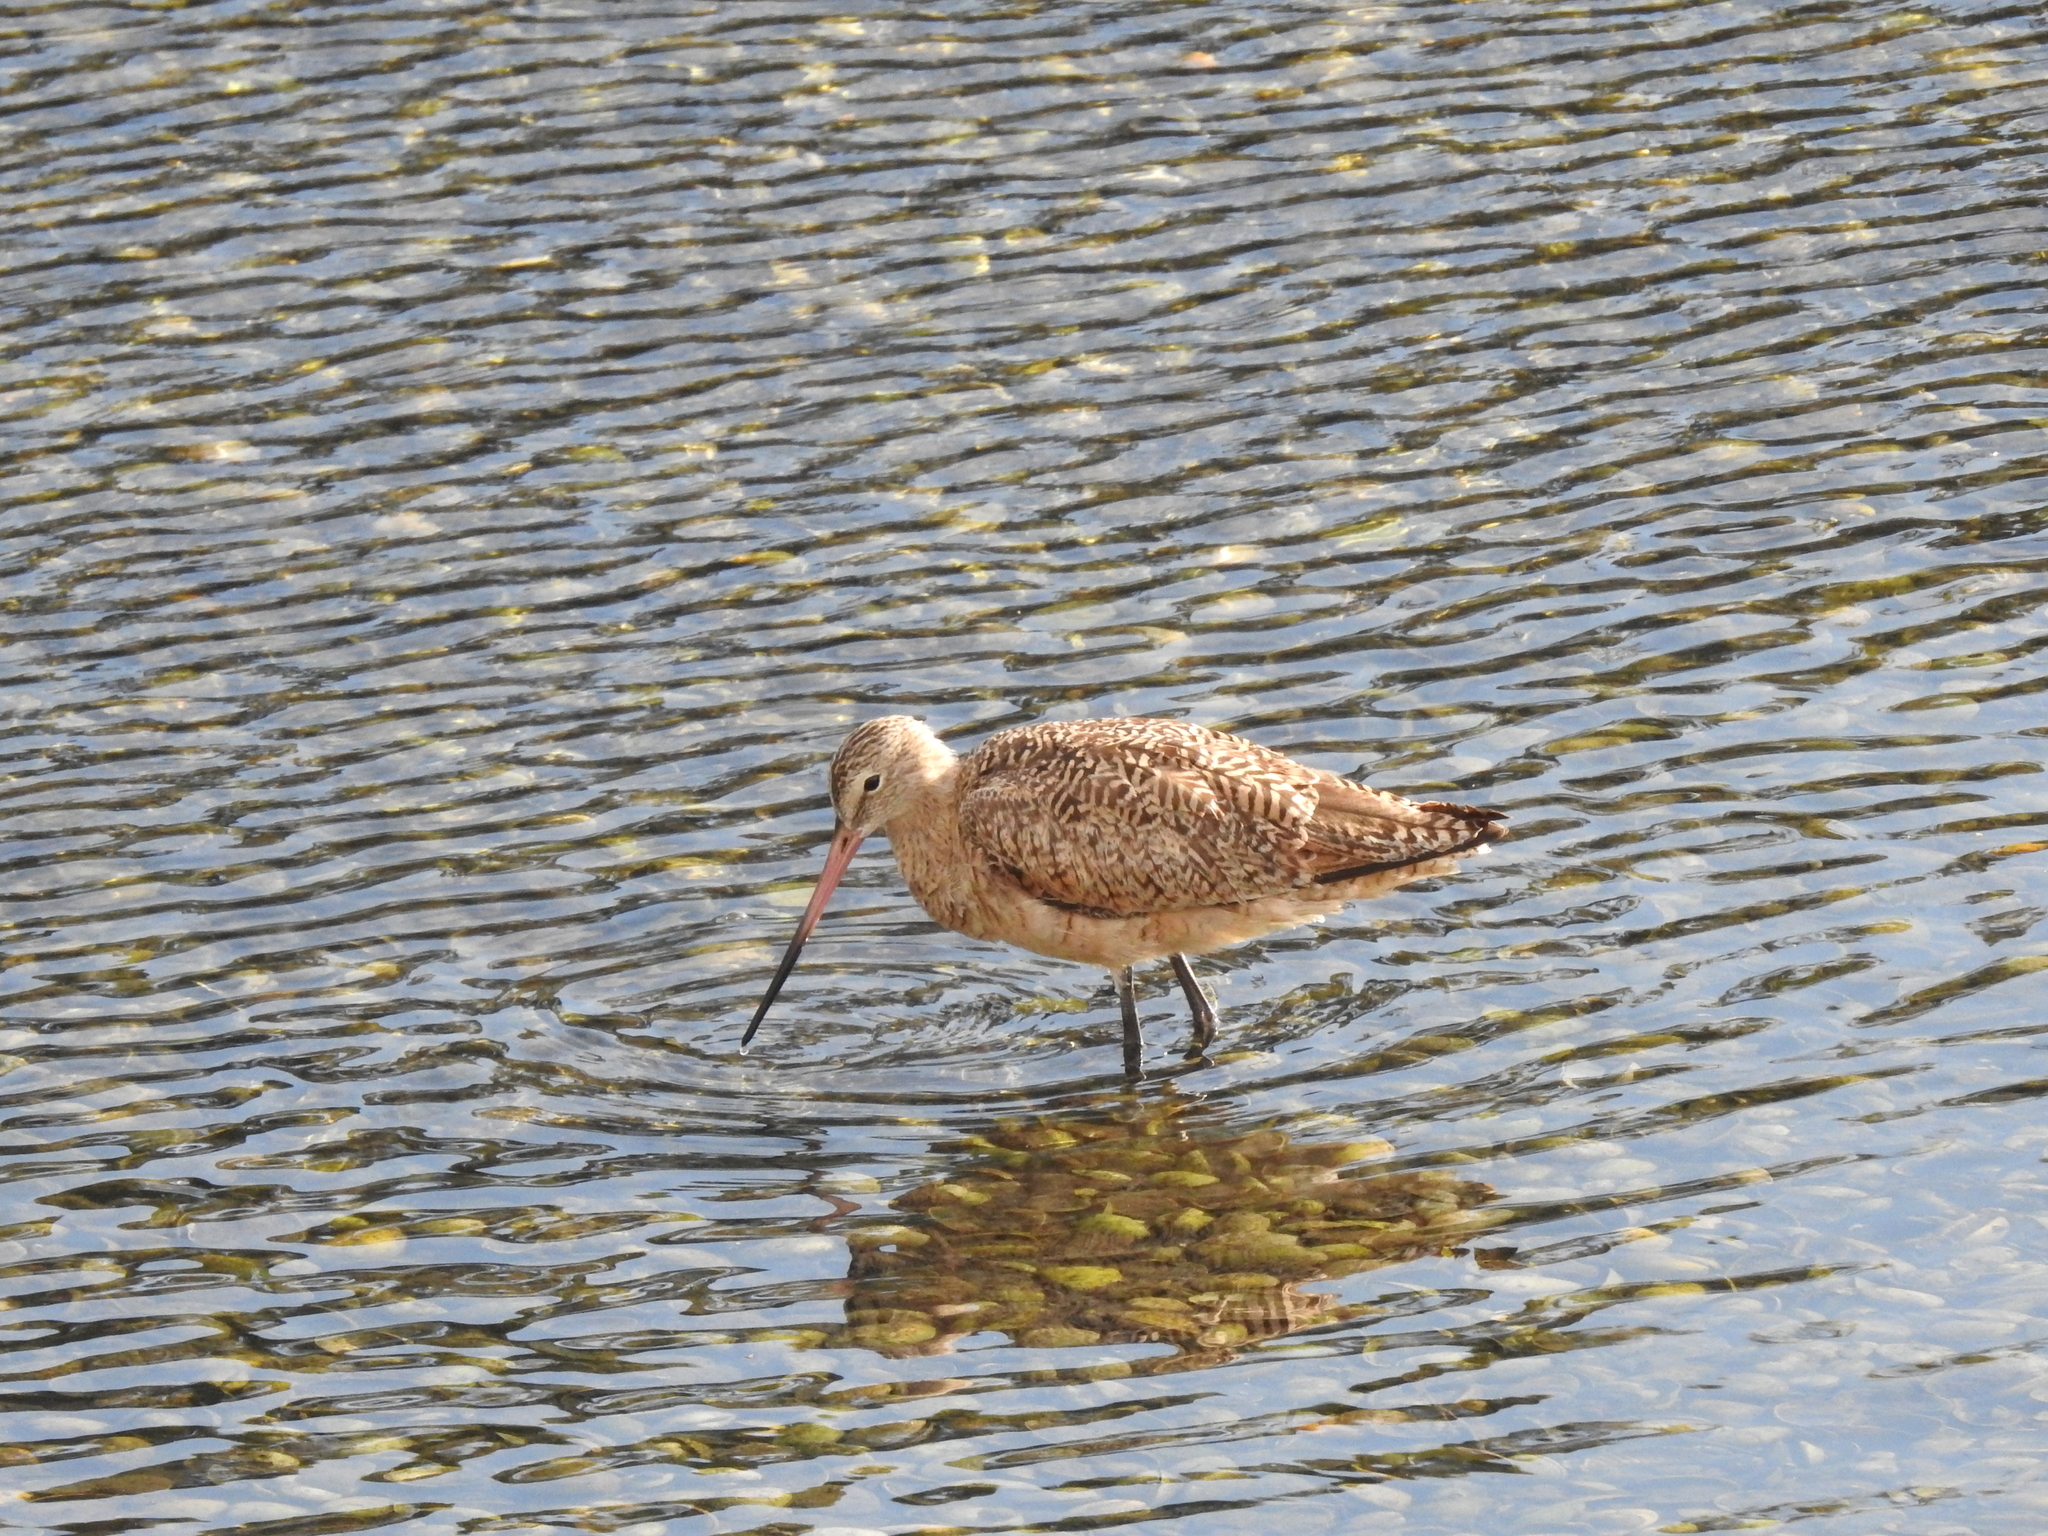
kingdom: Animalia
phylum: Chordata
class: Aves
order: Charadriiformes
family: Scolopacidae
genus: Limosa
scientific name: Limosa fedoa
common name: Marbled godwit
